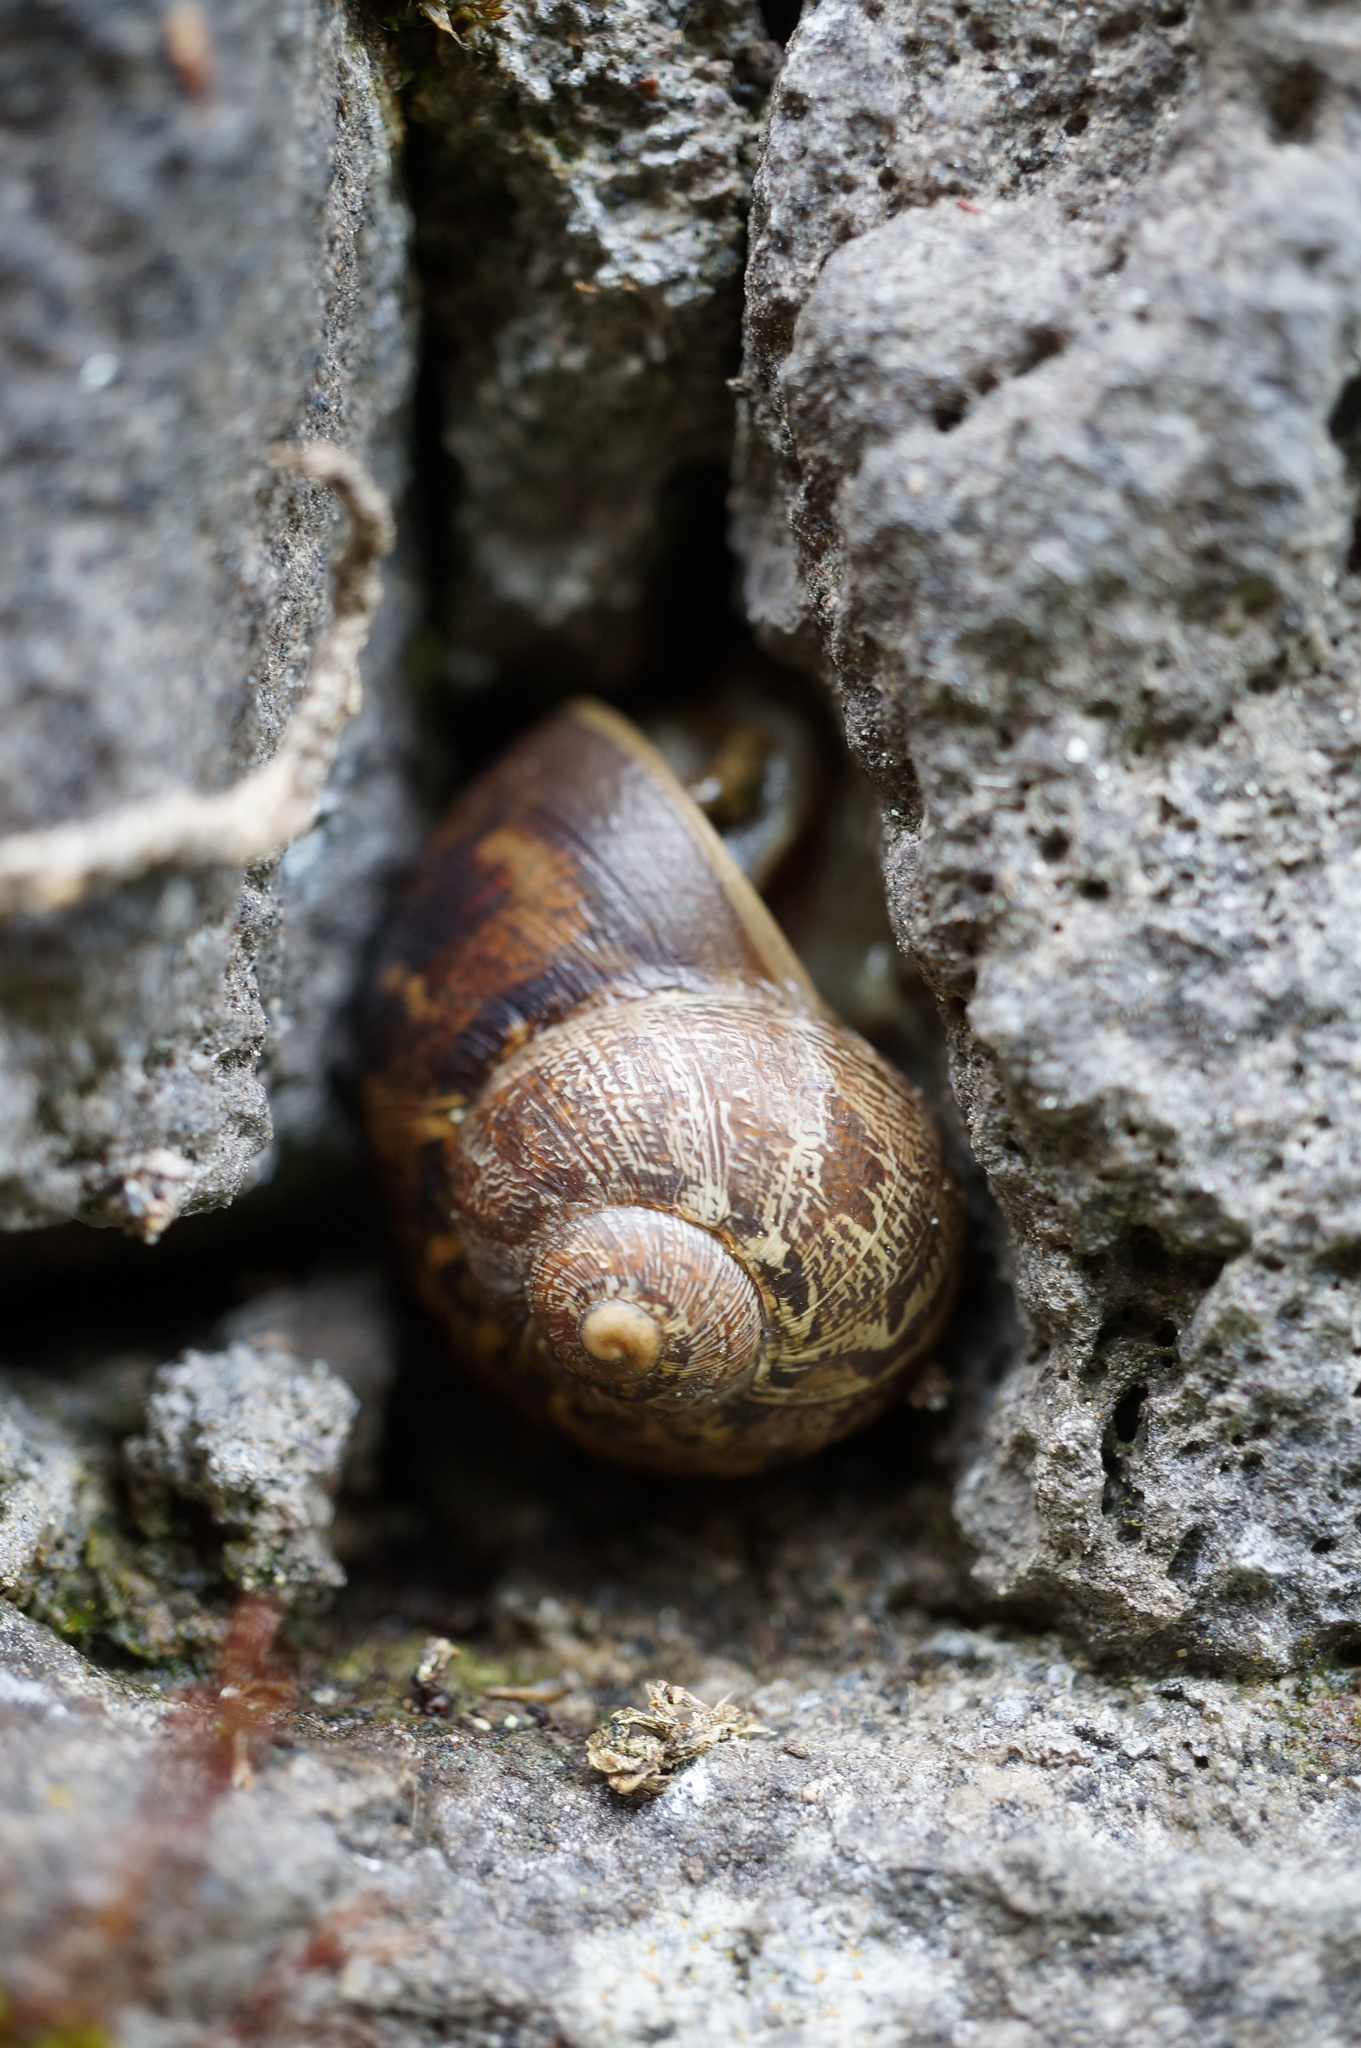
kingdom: Animalia
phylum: Mollusca
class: Gastropoda
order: Stylommatophora
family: Helicidae
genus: Cornu
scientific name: Cornu aspersum
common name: Brown garden snail
